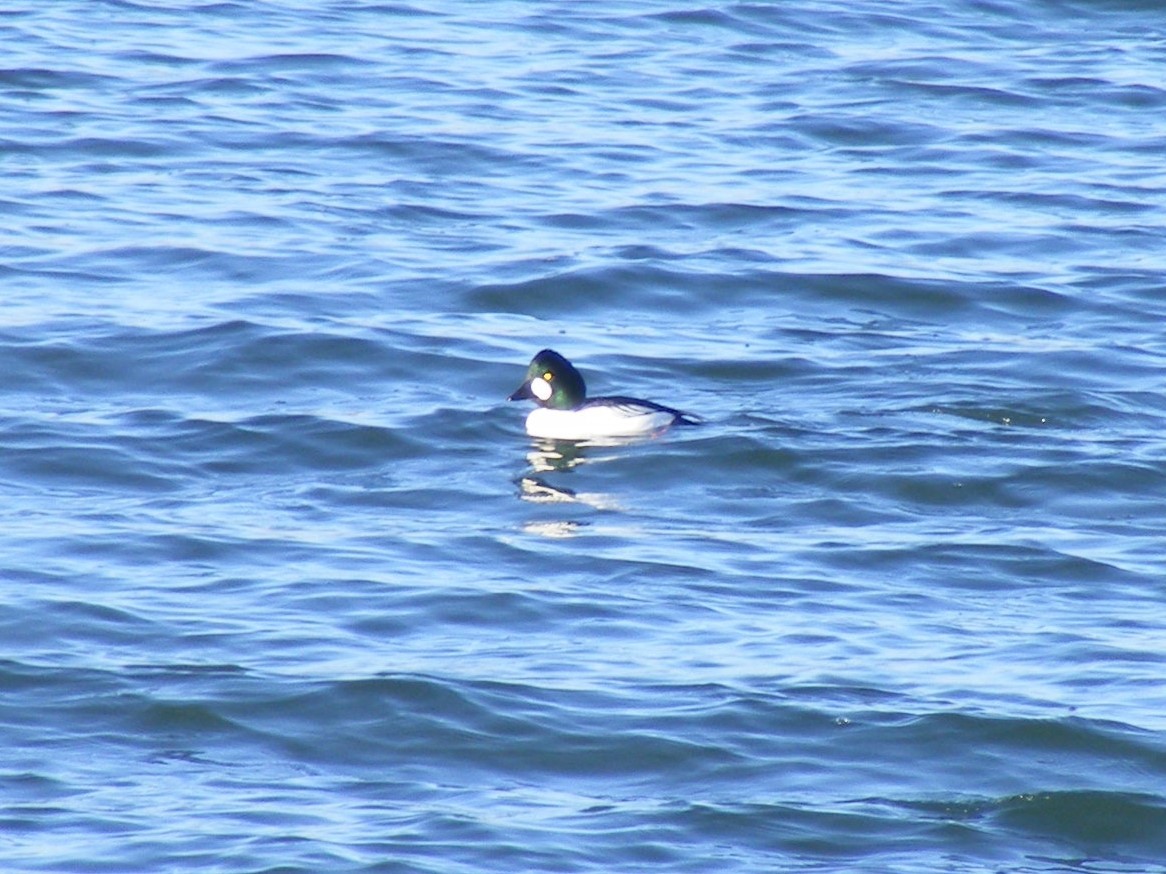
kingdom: Animalia
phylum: Chordata
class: Aves
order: Anseriformes
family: Anatidae
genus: Bucephala
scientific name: Bucephala clangula
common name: Common goldeneye
